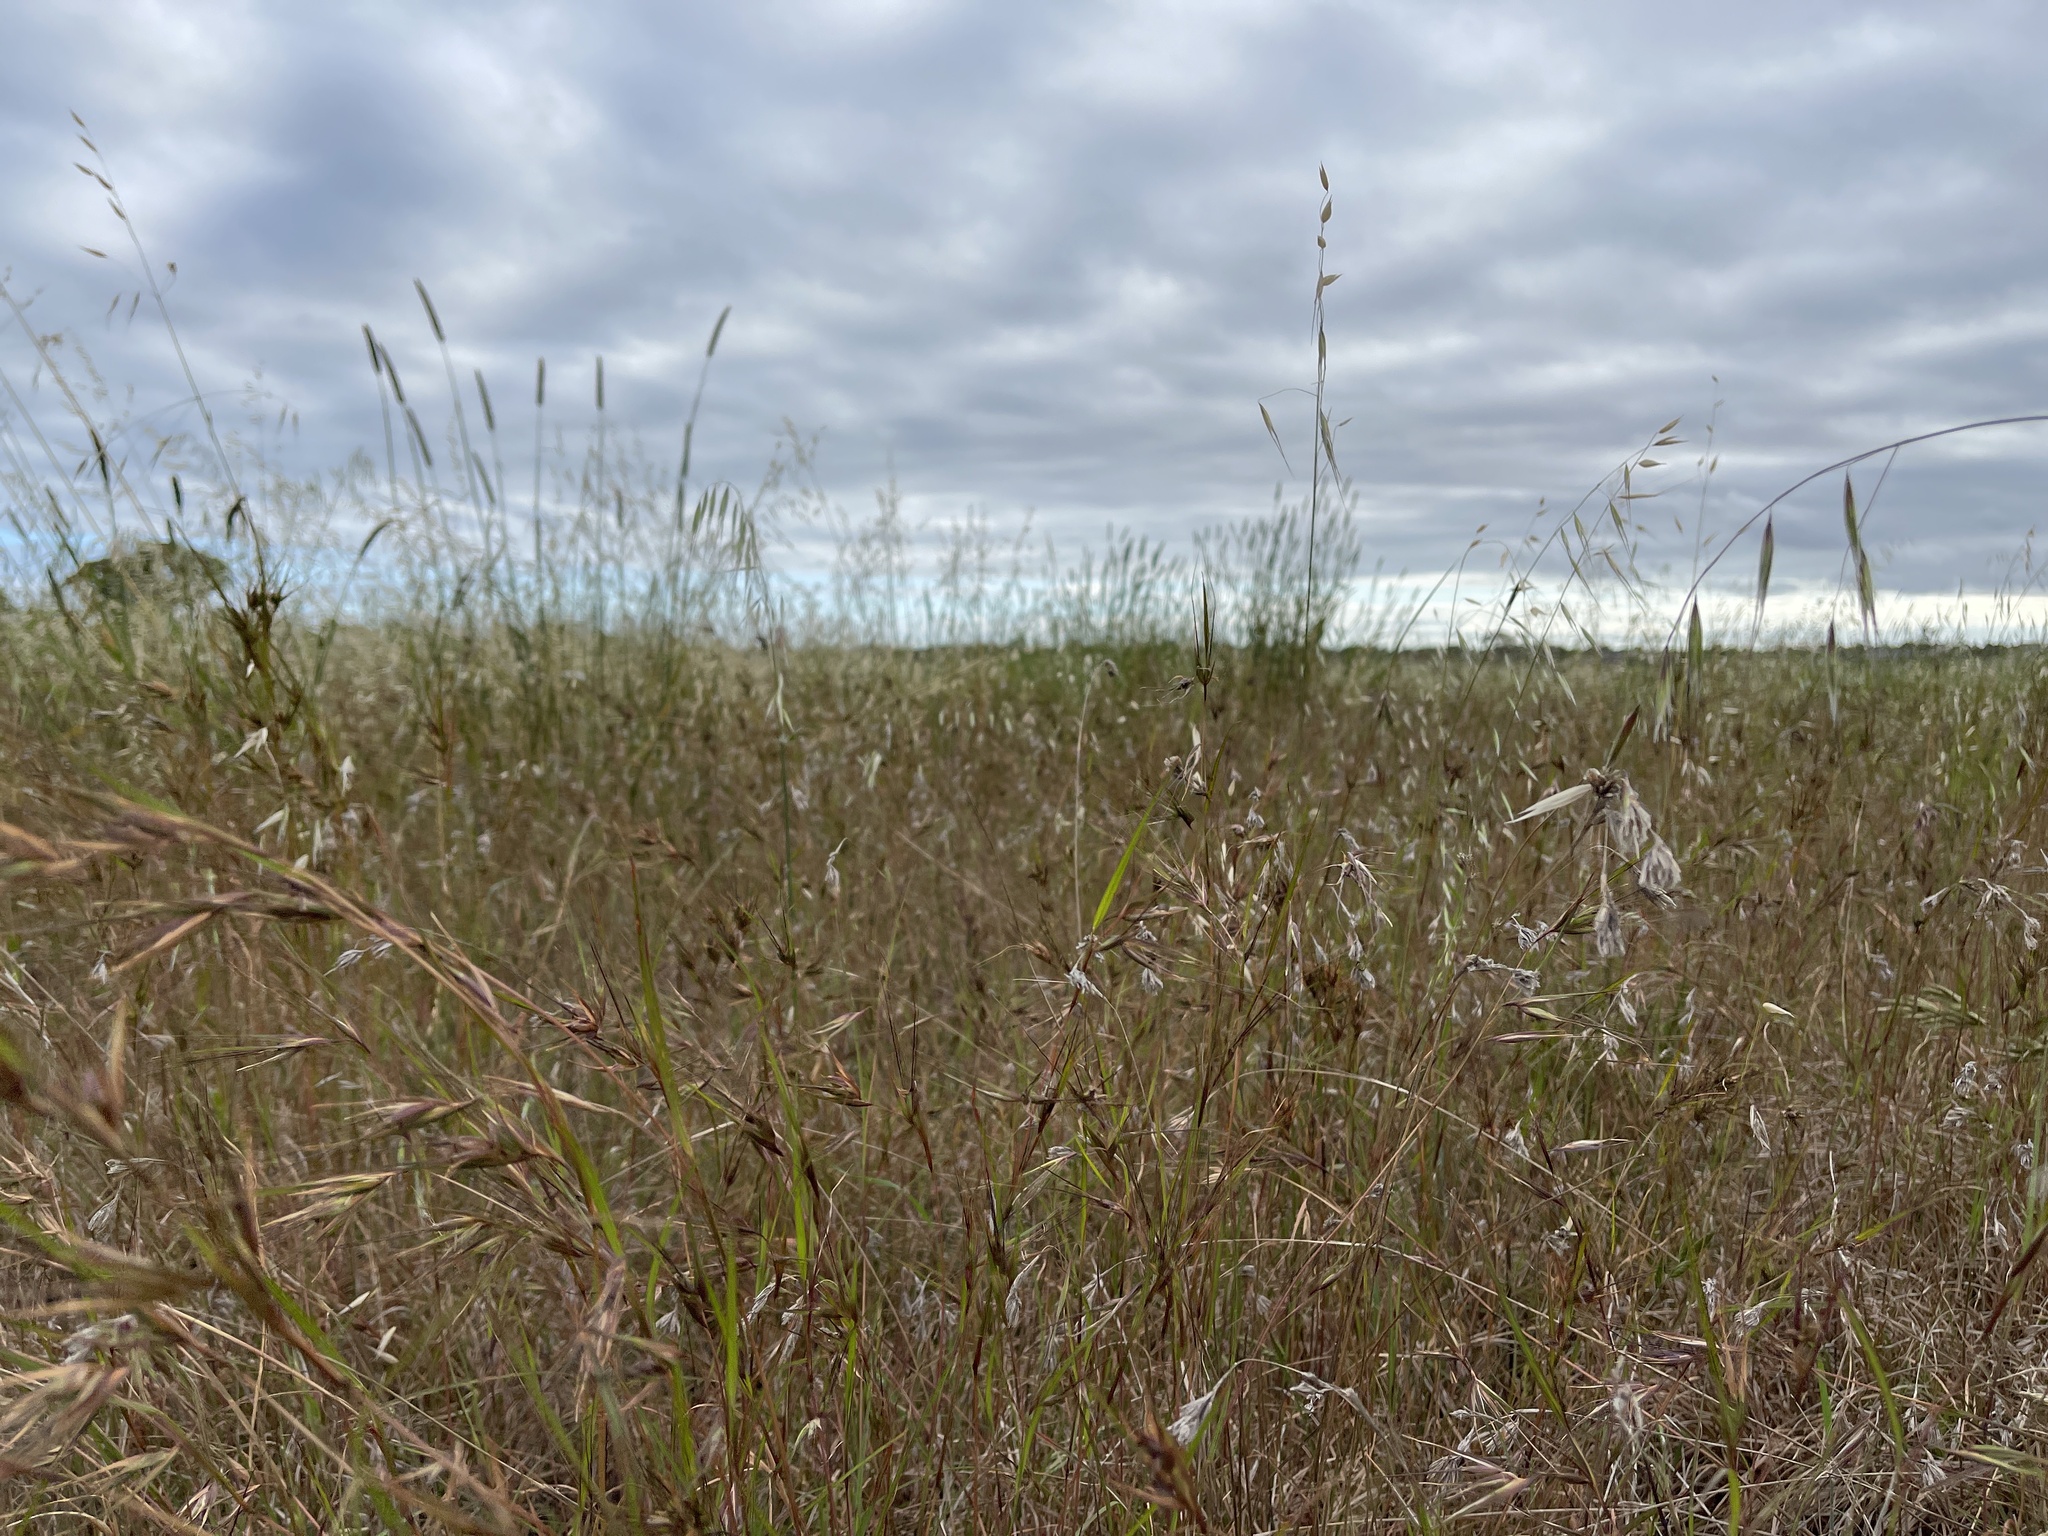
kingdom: Plantae
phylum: Tracheophyta
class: Liliopsida
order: Poales
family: Poaceae
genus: Themeda
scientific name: Themeda triandra
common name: Kangaroo grass
